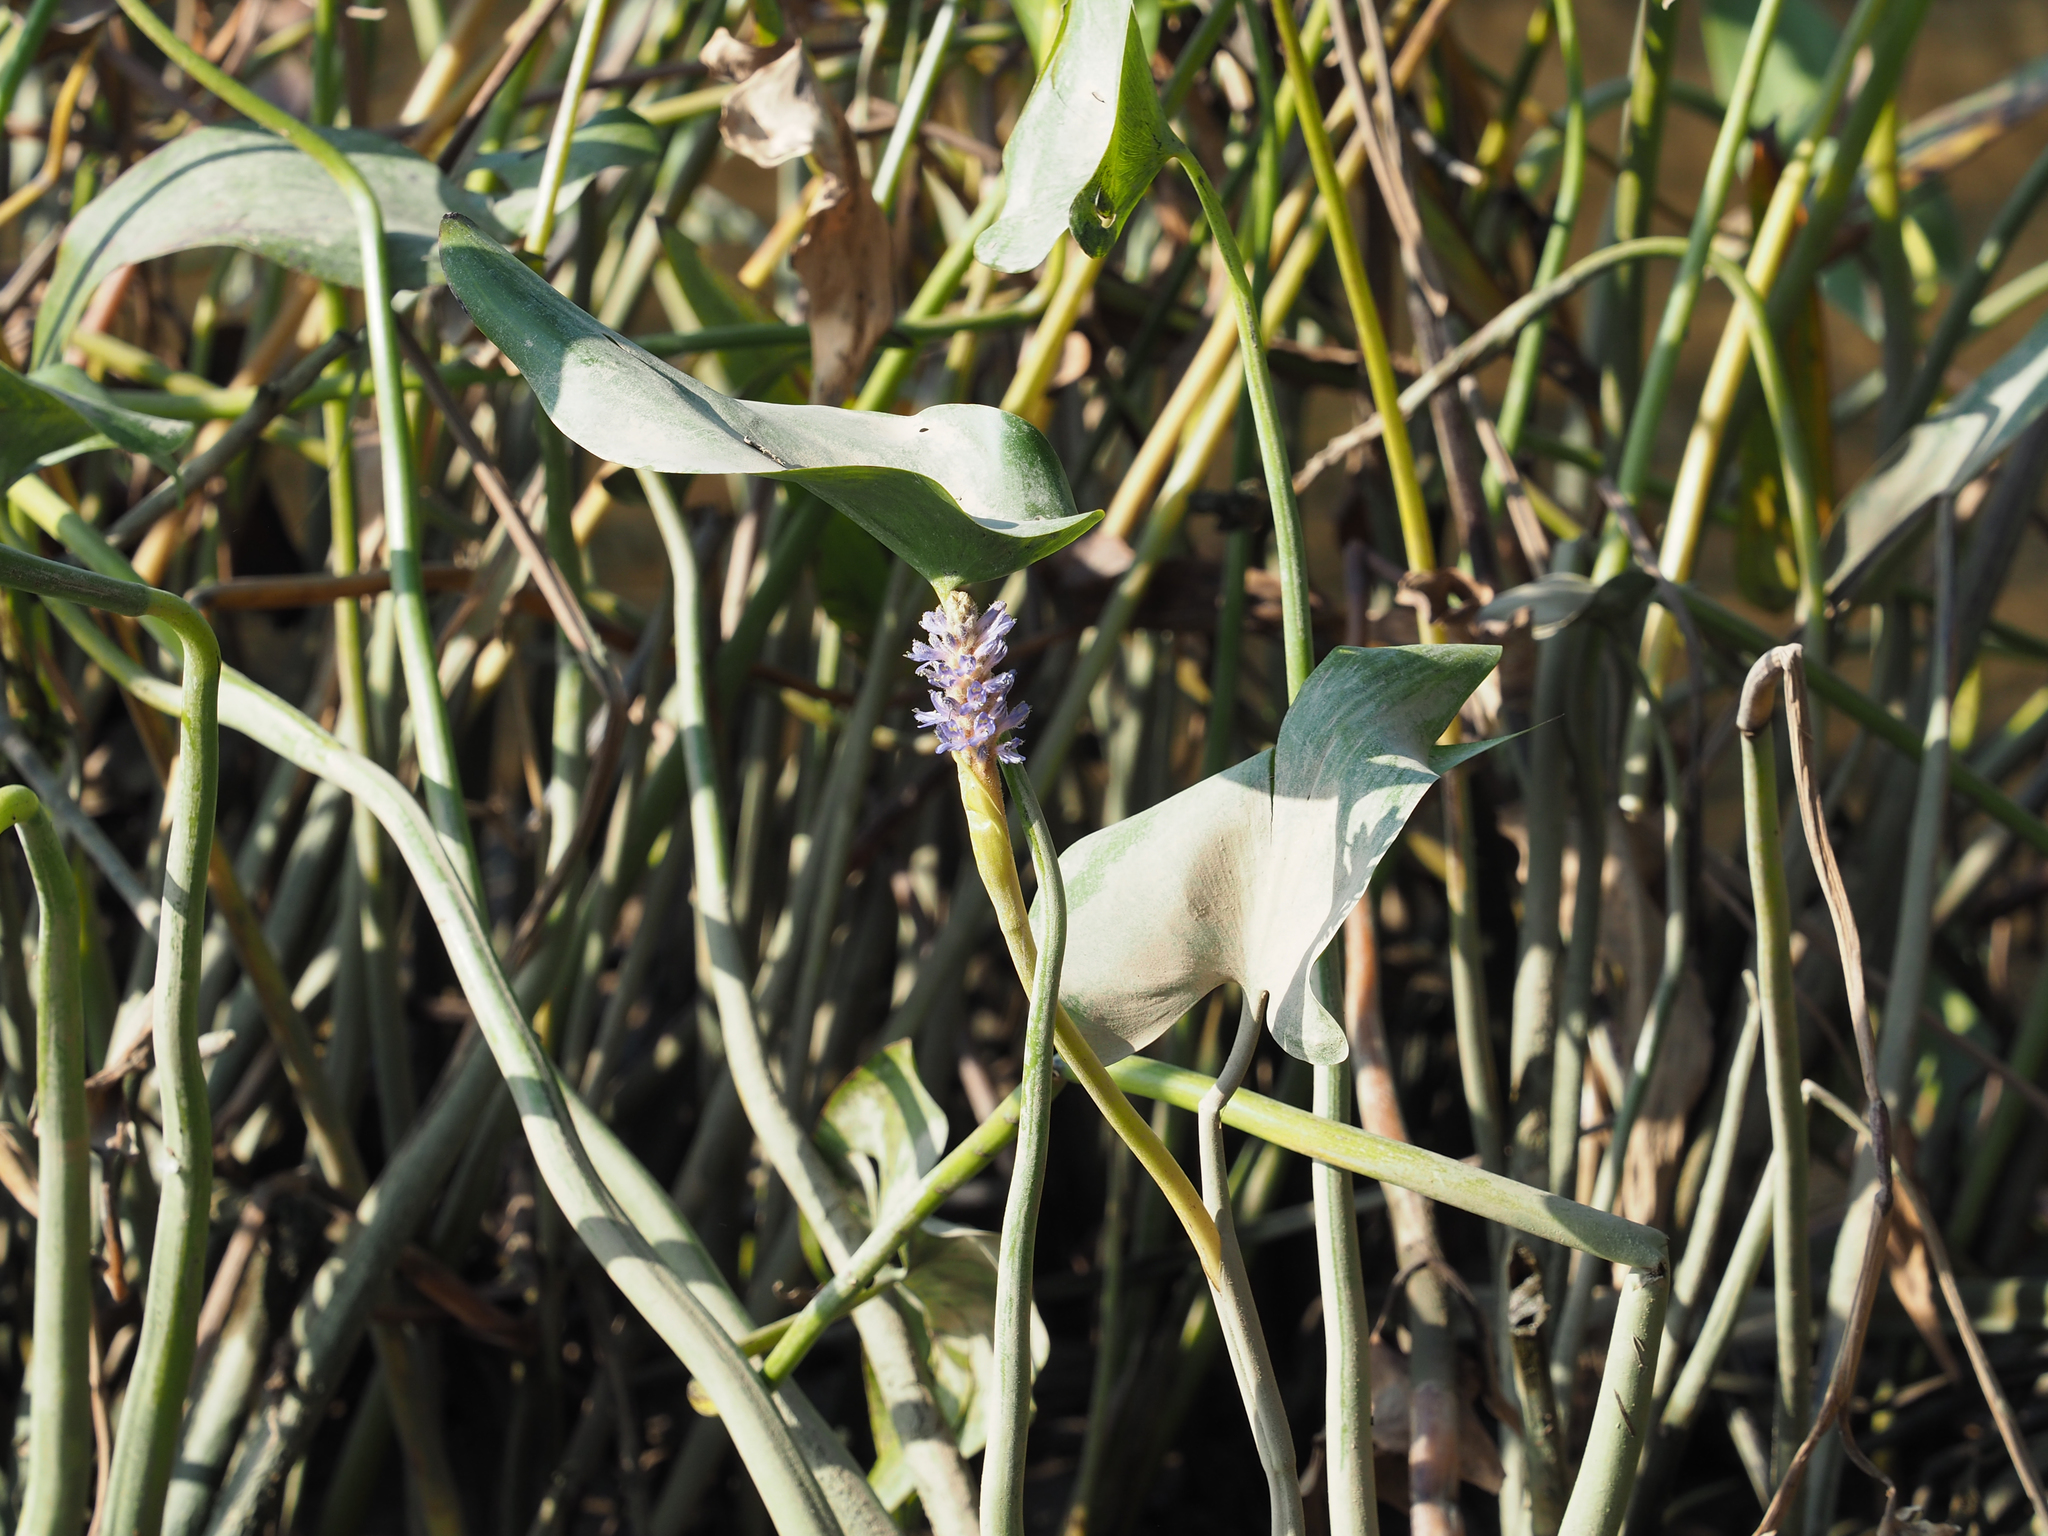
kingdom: Plantae
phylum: Tracheophyta
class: Liliopsida
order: Commelinales
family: Pontederiaceae
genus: Pontederia
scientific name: Pontederia cordata
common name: Pickerelweed
